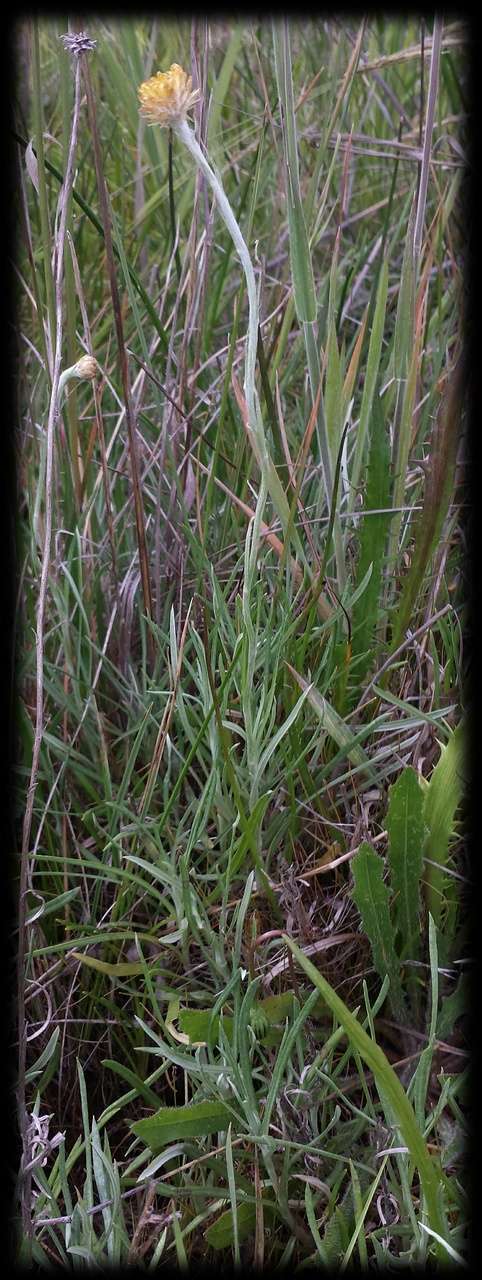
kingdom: Plantae
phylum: Tracheophyta
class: Magnoliopsida
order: Asterales
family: Asteraceae
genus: Coronidium
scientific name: Coronidium gunnianum
